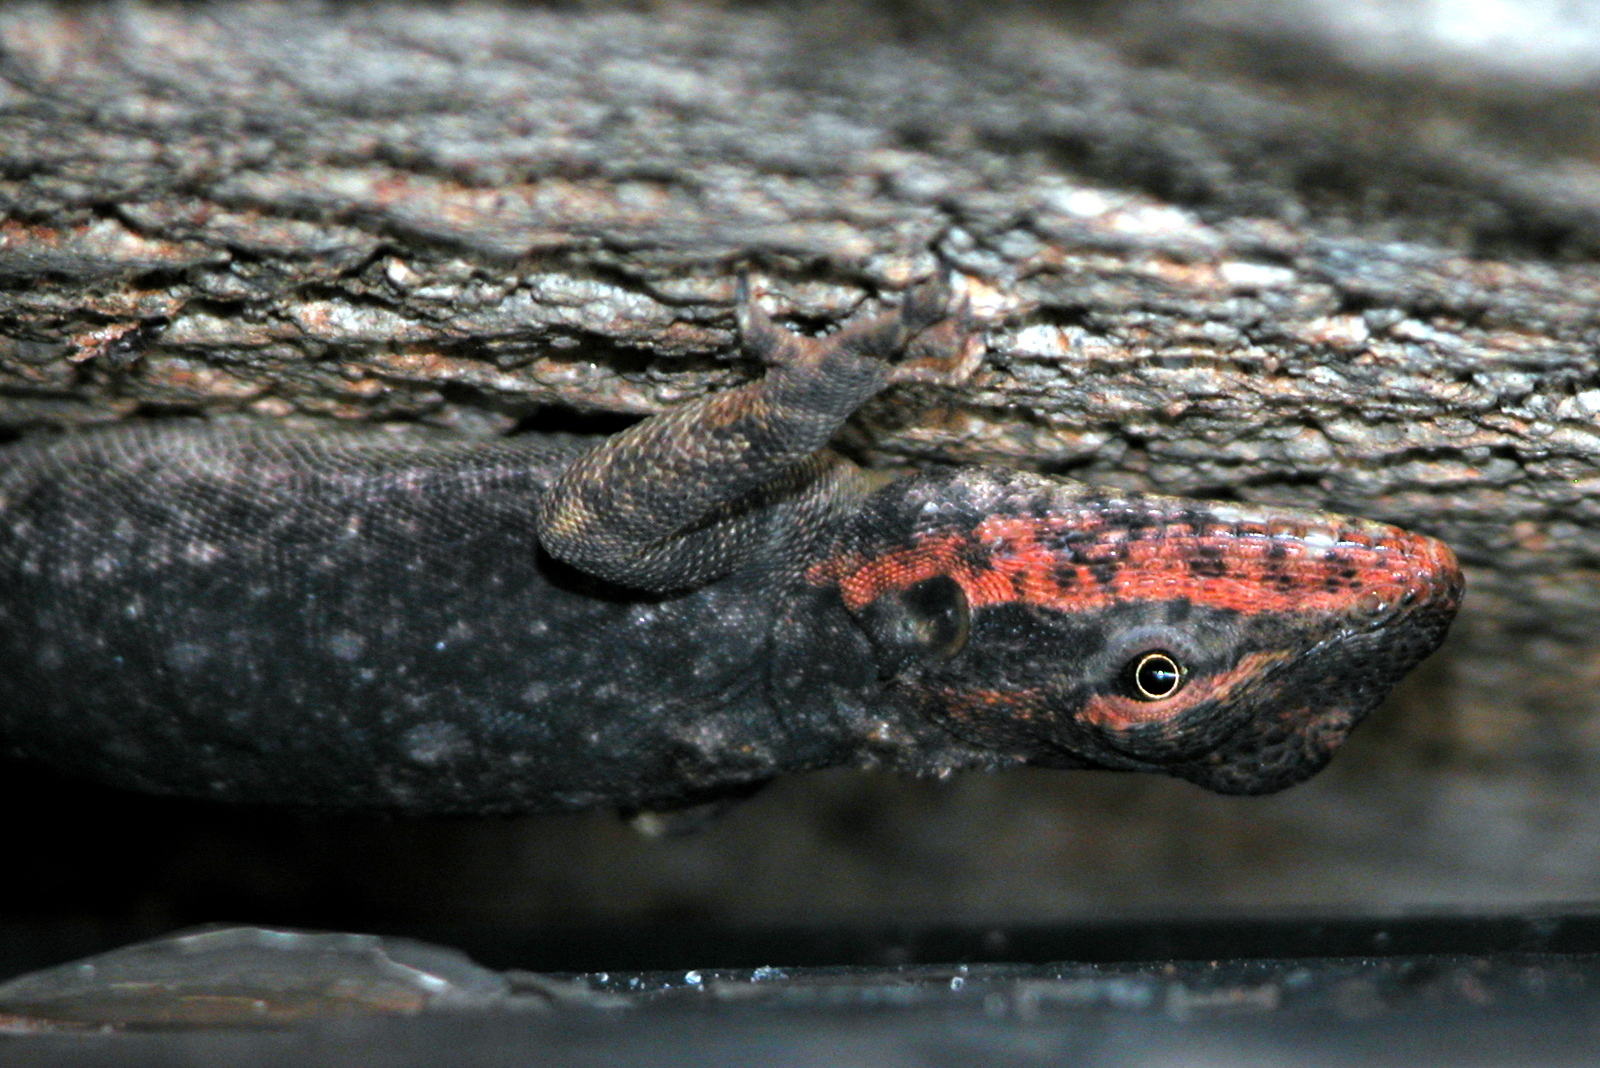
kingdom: Animalia
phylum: Chordata
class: Squamata
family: Agamidae
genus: Psammophilus
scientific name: Psammophilus dorsalis
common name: South indian rock agama
